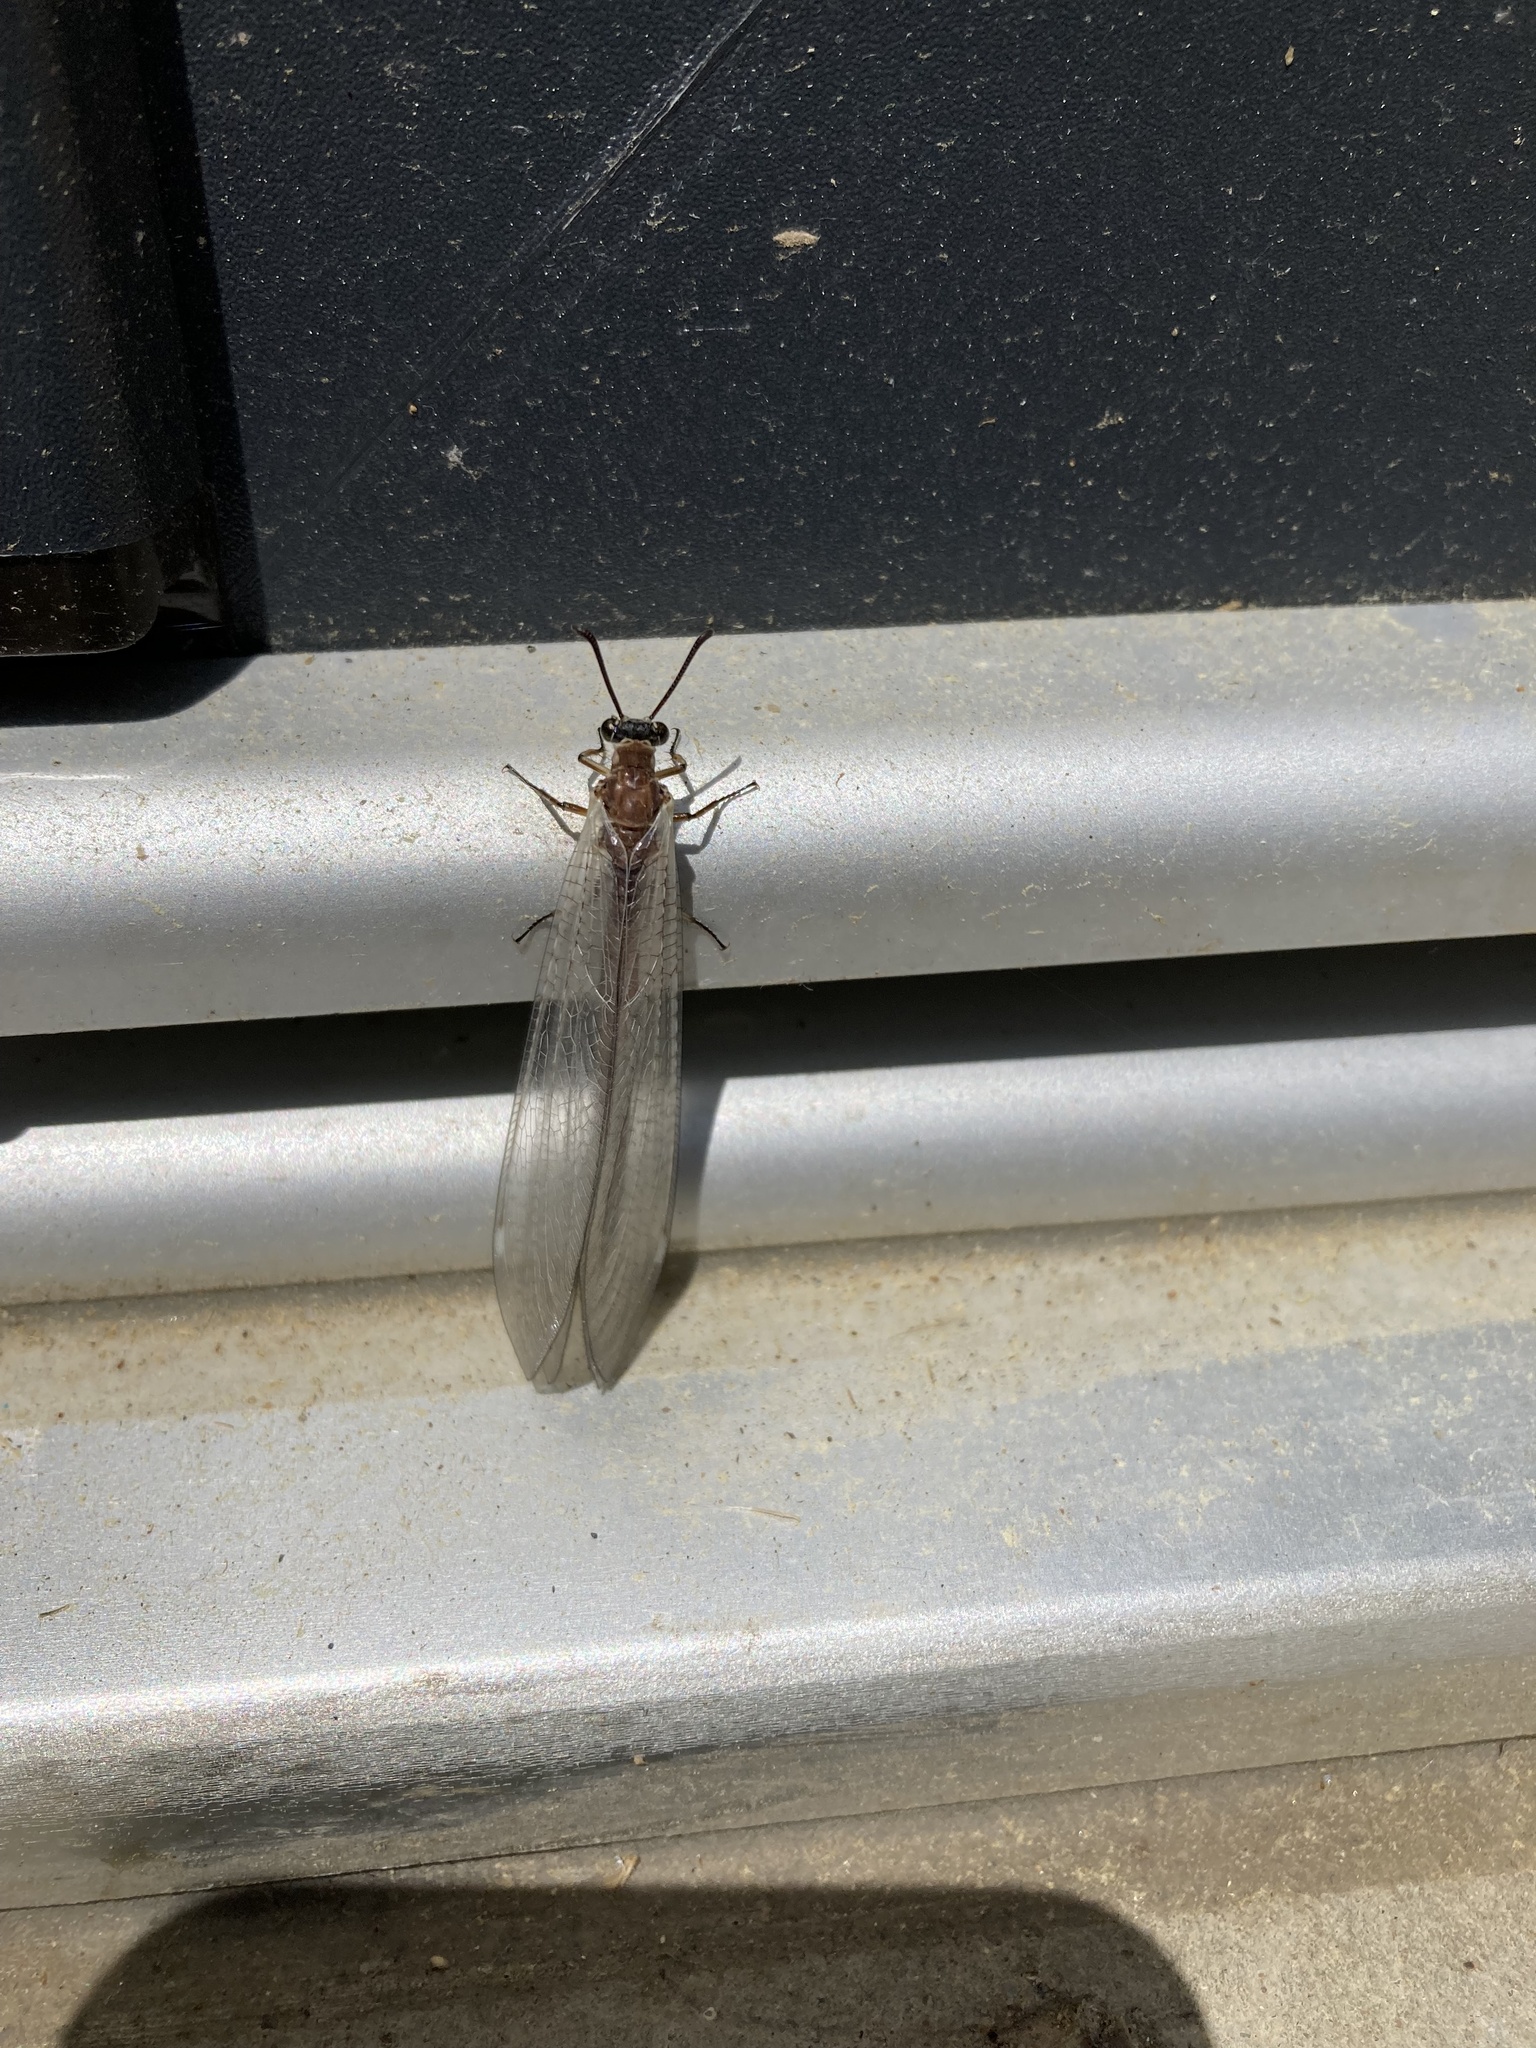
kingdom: Animalia
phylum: Arthropoda
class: Insecta
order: Neuroptera
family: Myrmeleontidae
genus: Myrmeleon
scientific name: Myrmeleon formicarius
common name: Ant-lion
